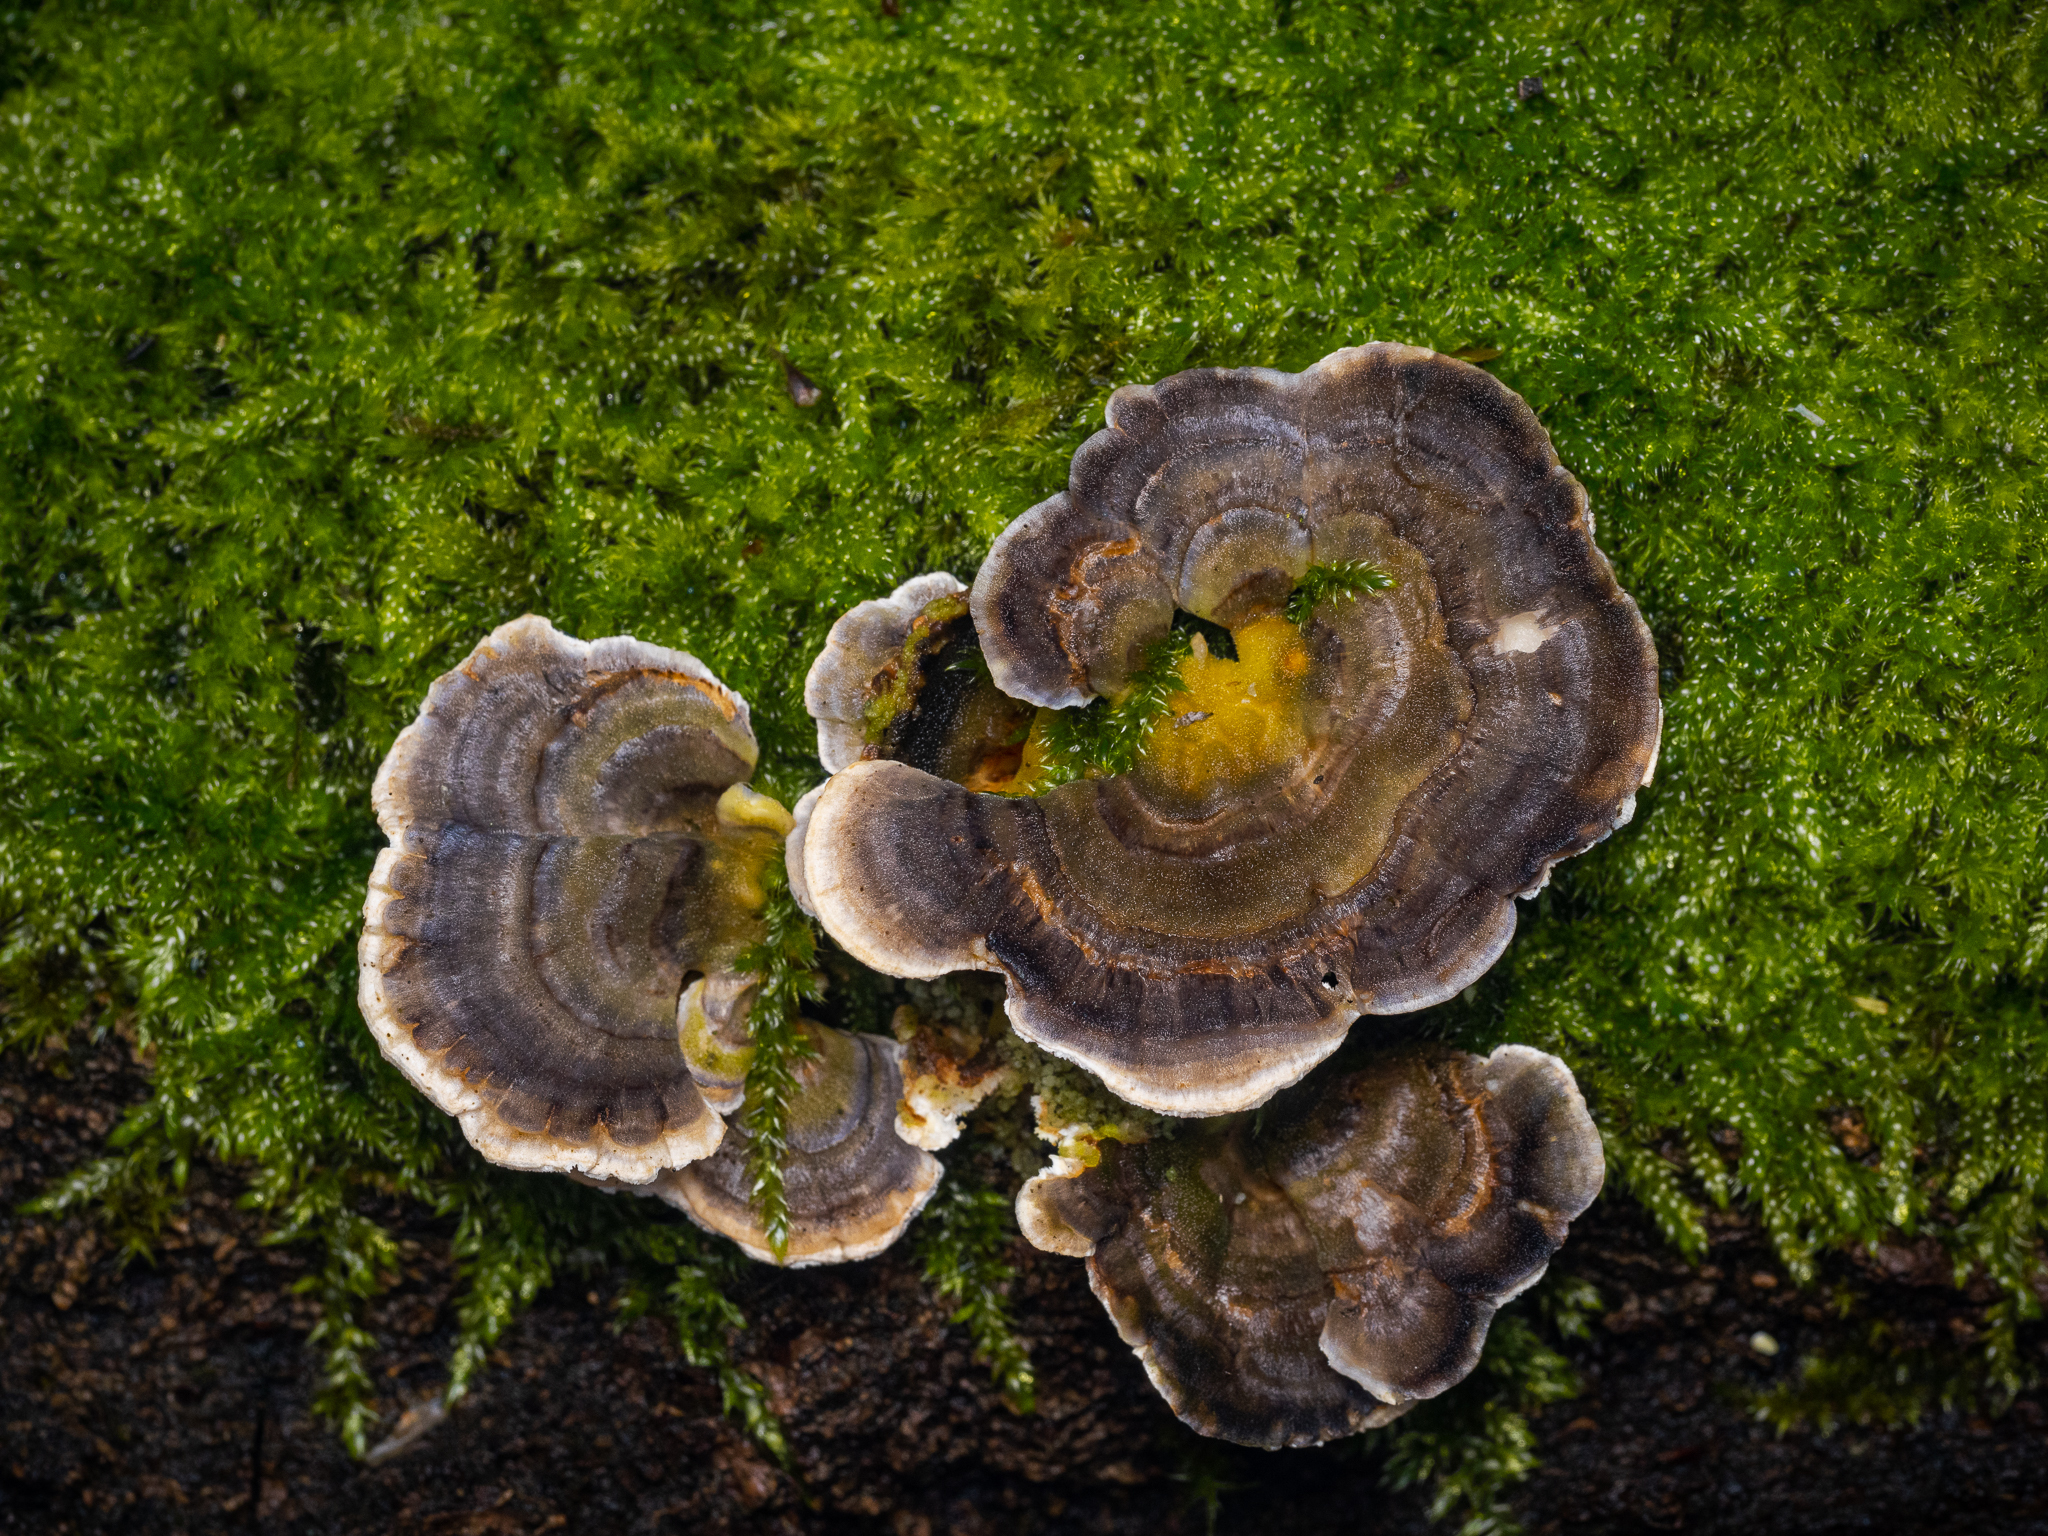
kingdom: Fungi
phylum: Basidiomycota
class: Agaricomycetes
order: Polyporales
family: Polyporaceae
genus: Trametes
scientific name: Trametes versicolor
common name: Turkeytail
